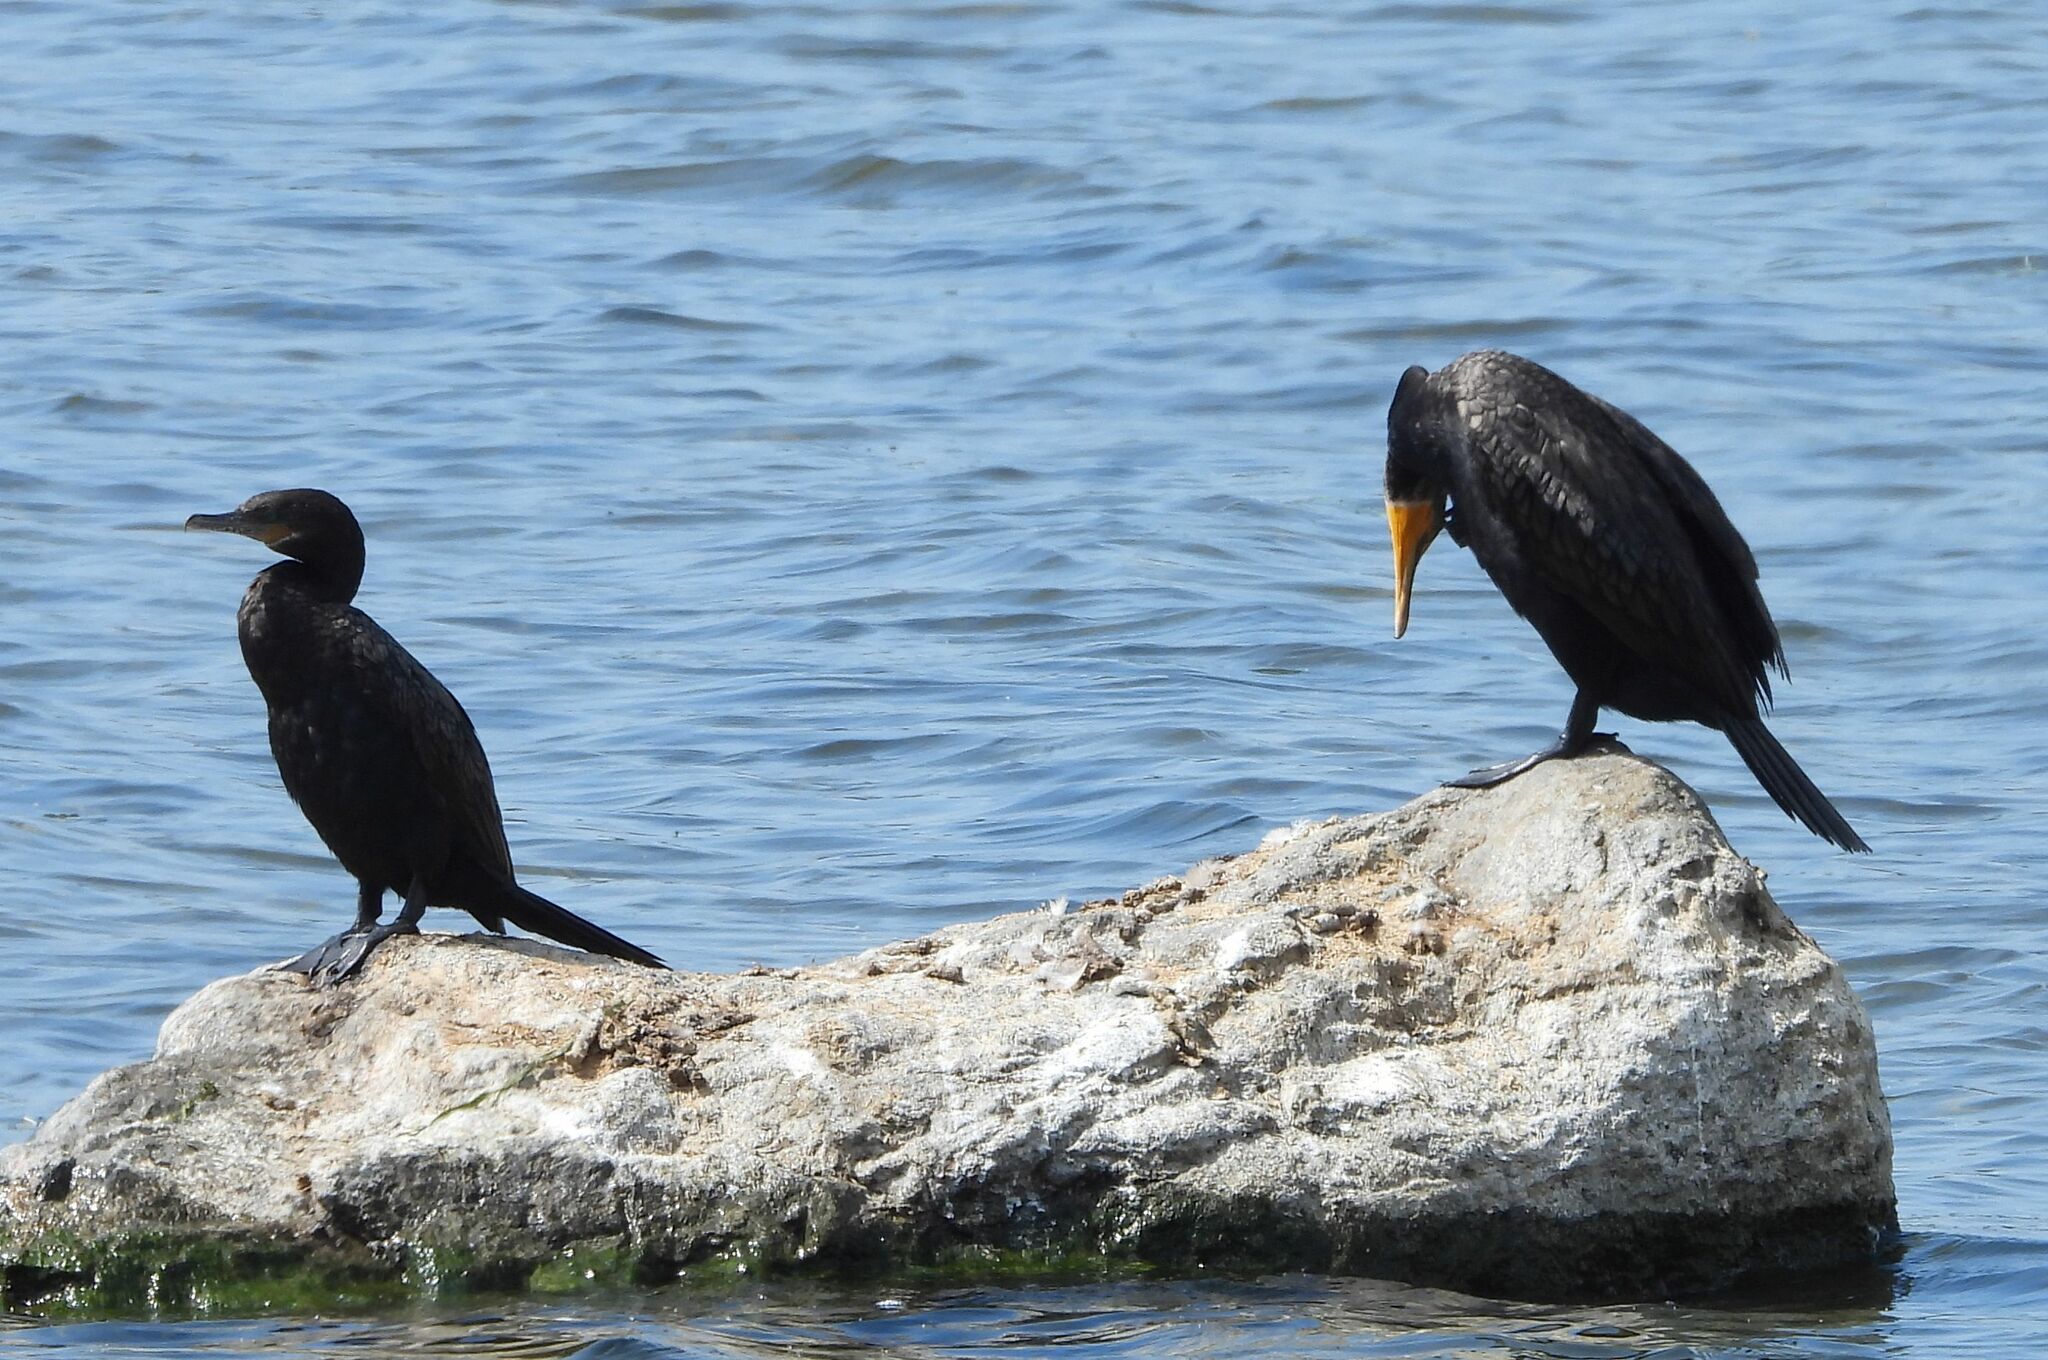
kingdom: Animalia
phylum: Chordata
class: Aves
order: Suliformes
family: Phalacrocoracidae
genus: Phalacrocorax
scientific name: Phalacrocorax brasilianus
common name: Neotropic cormorant
